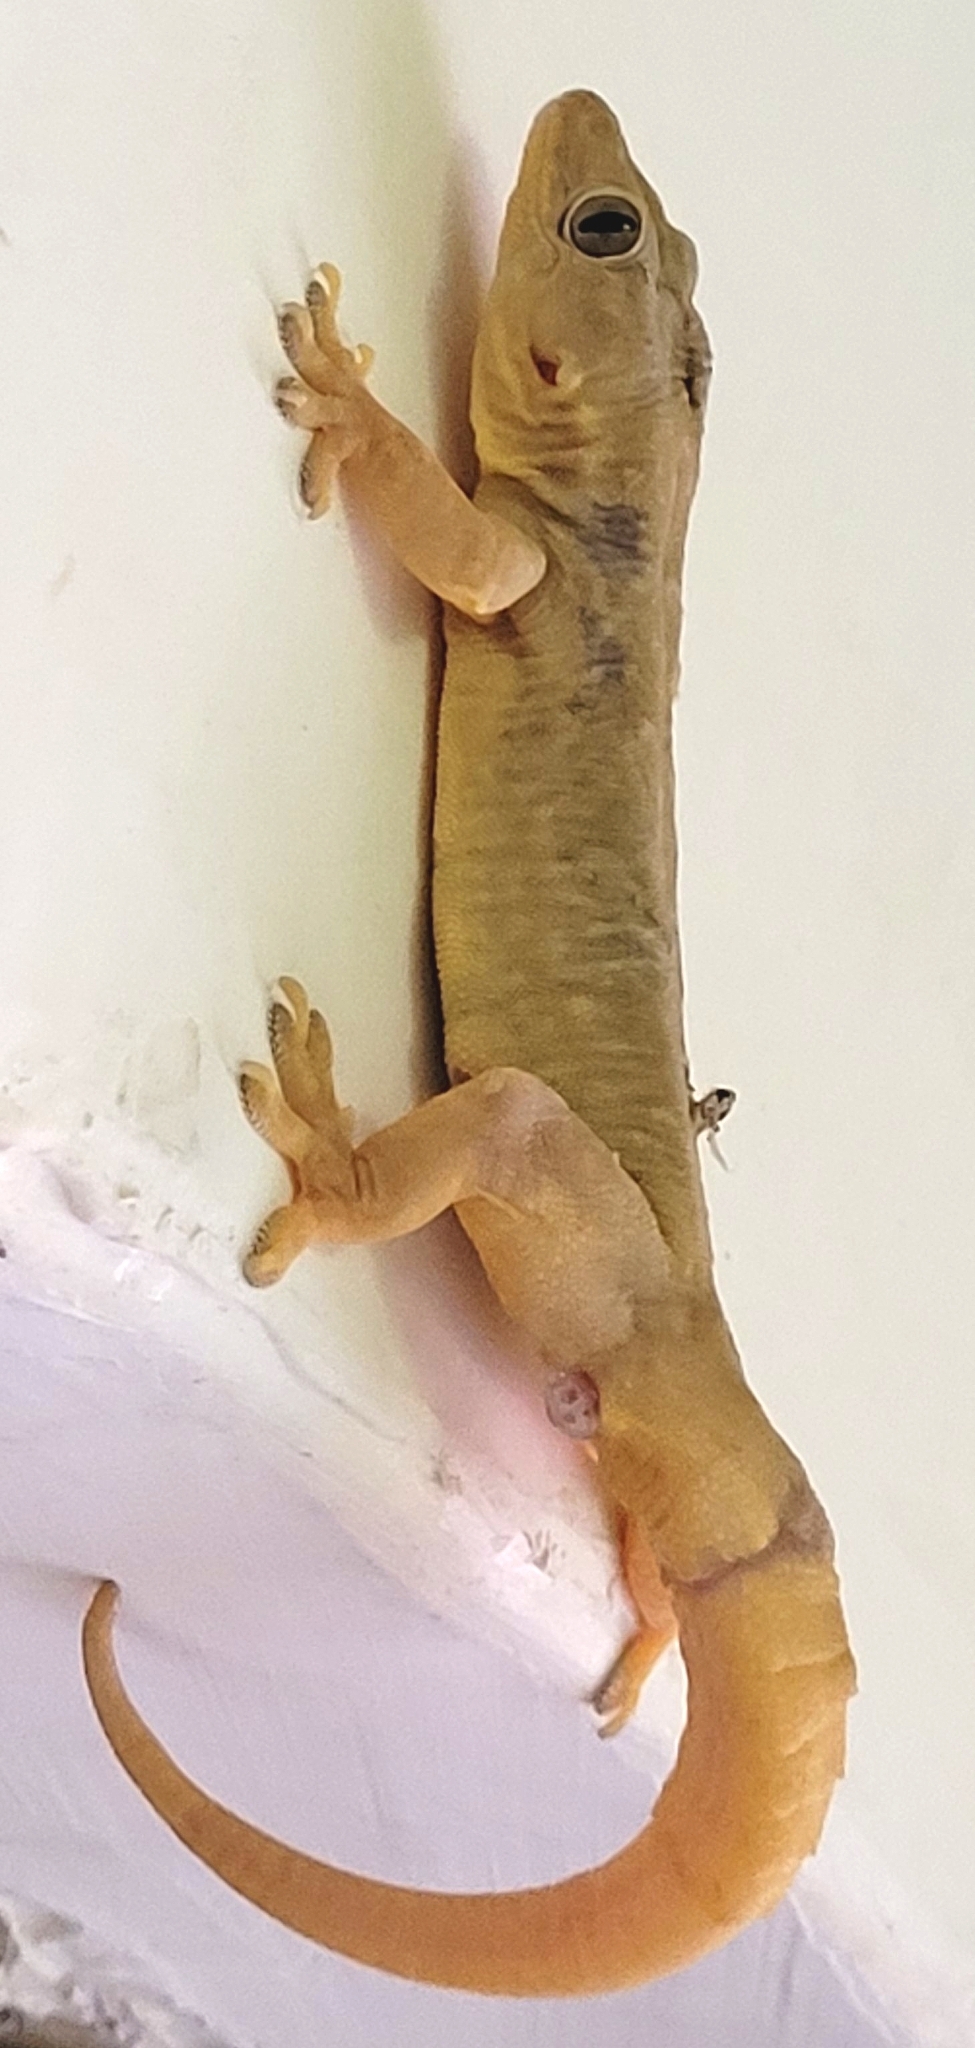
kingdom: Animalia
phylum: Chordata
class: Squamata
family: Gekkonidae
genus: Hemidactylus
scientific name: Hemidactylus flaviviridis
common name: Northern house gecko
